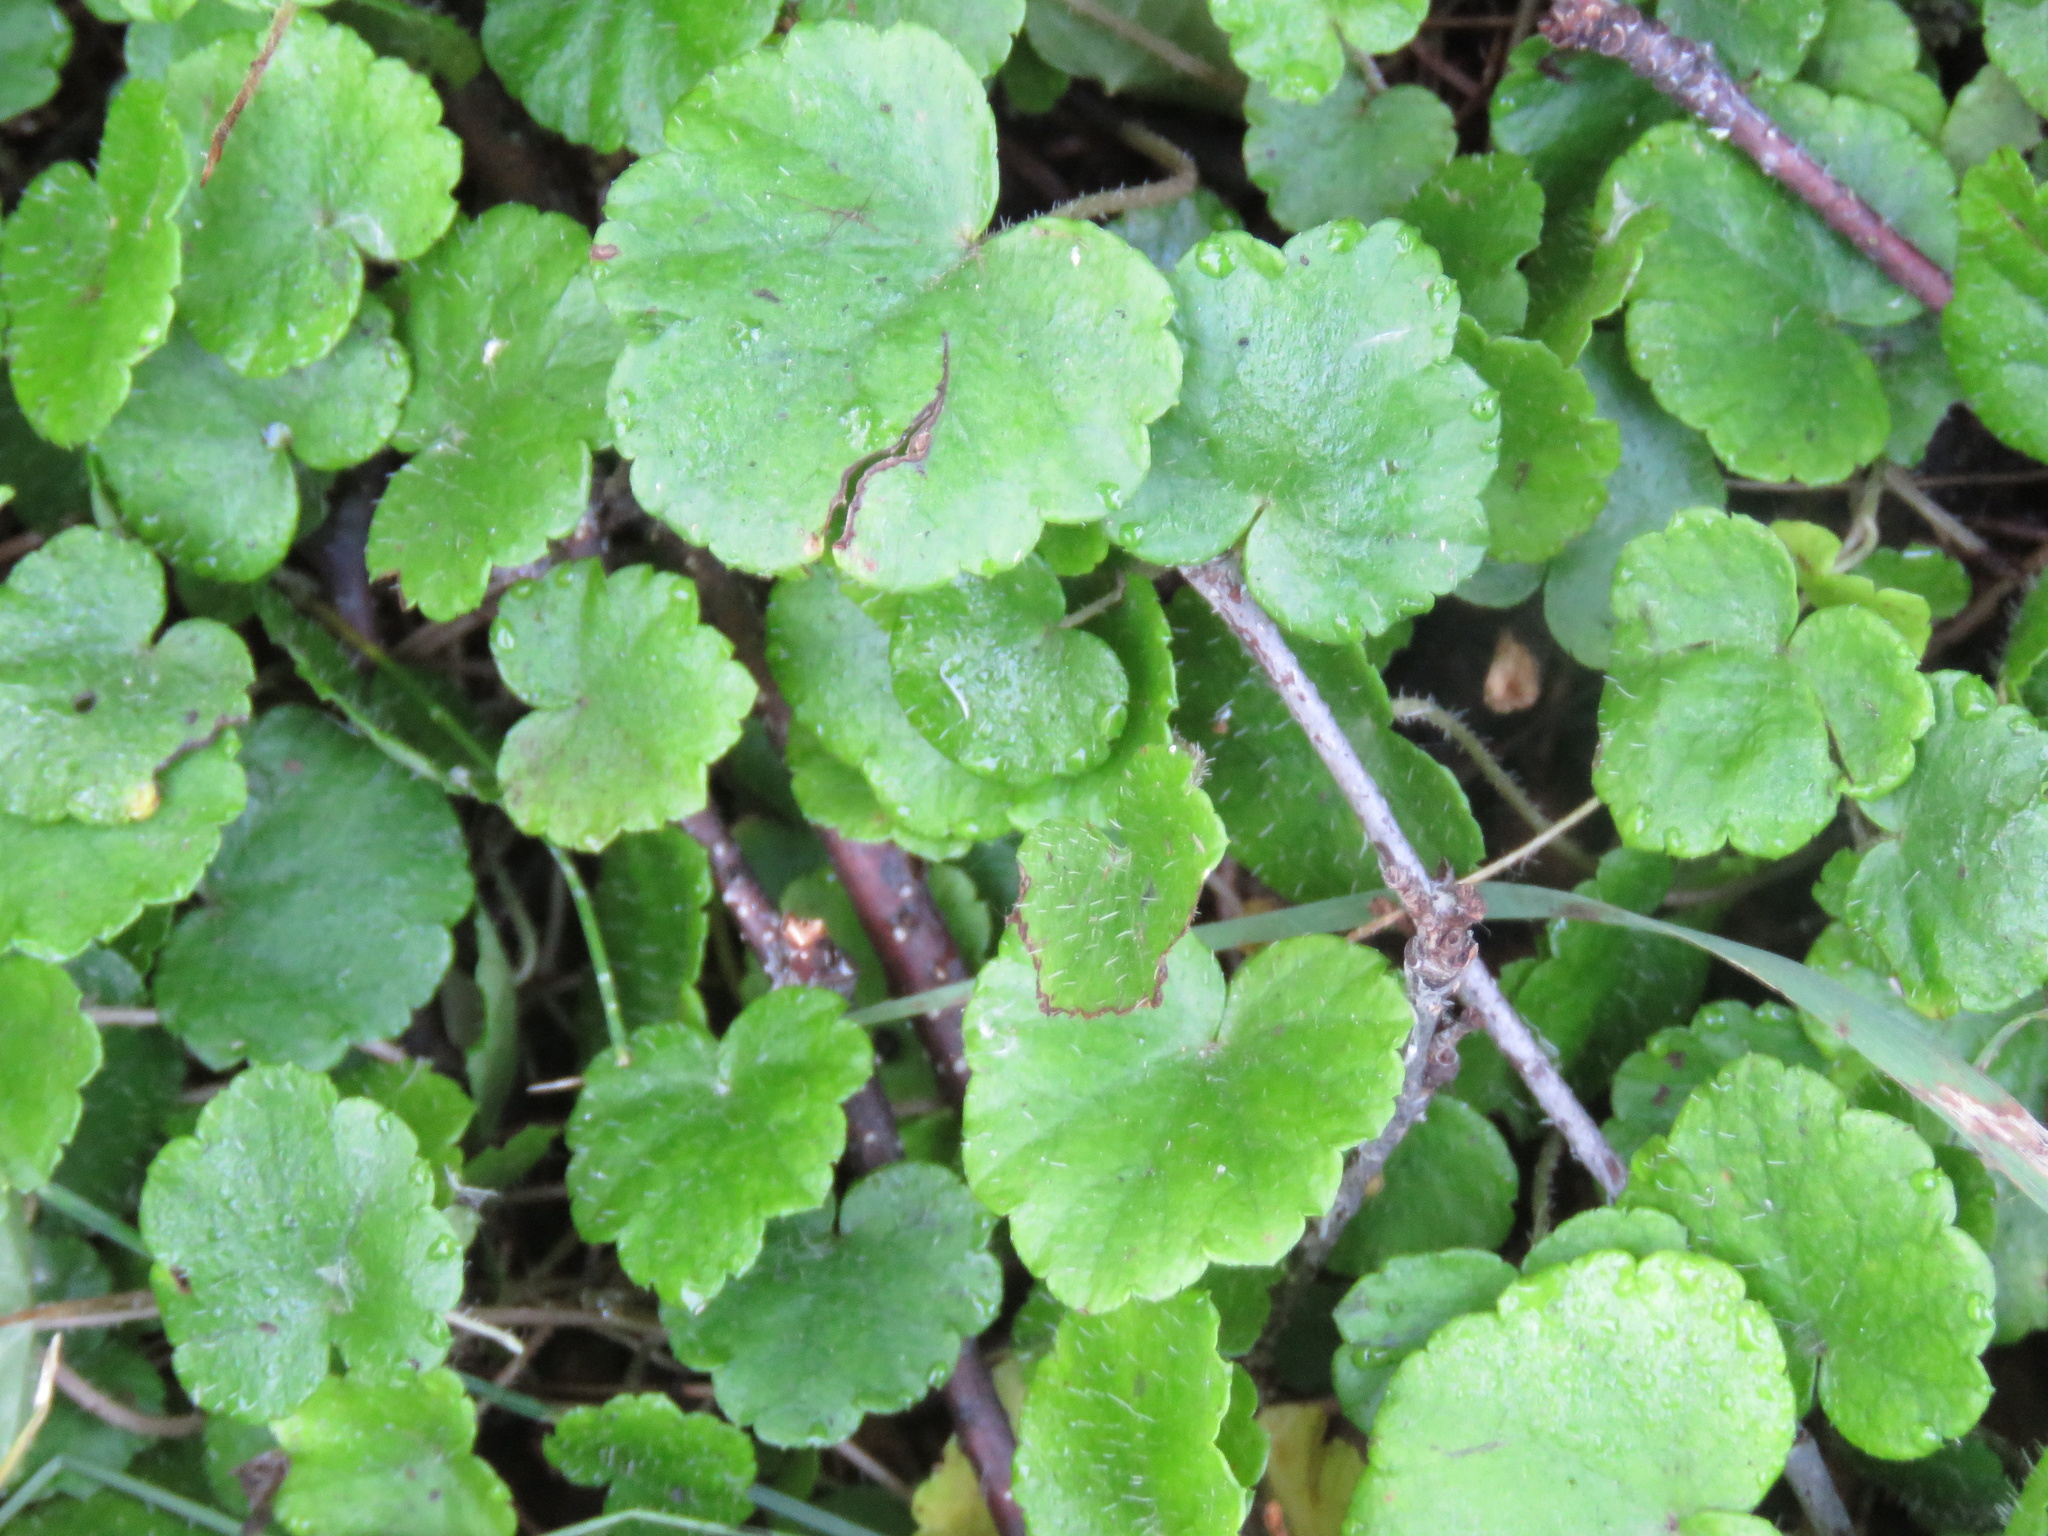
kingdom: Plantae
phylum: Tracheophyta
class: Magnoliopsida
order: Saxifragales
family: Saxifragaceae
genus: Mitella
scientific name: Mitella nuda
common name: Bare-stemmed bishop's-cap
